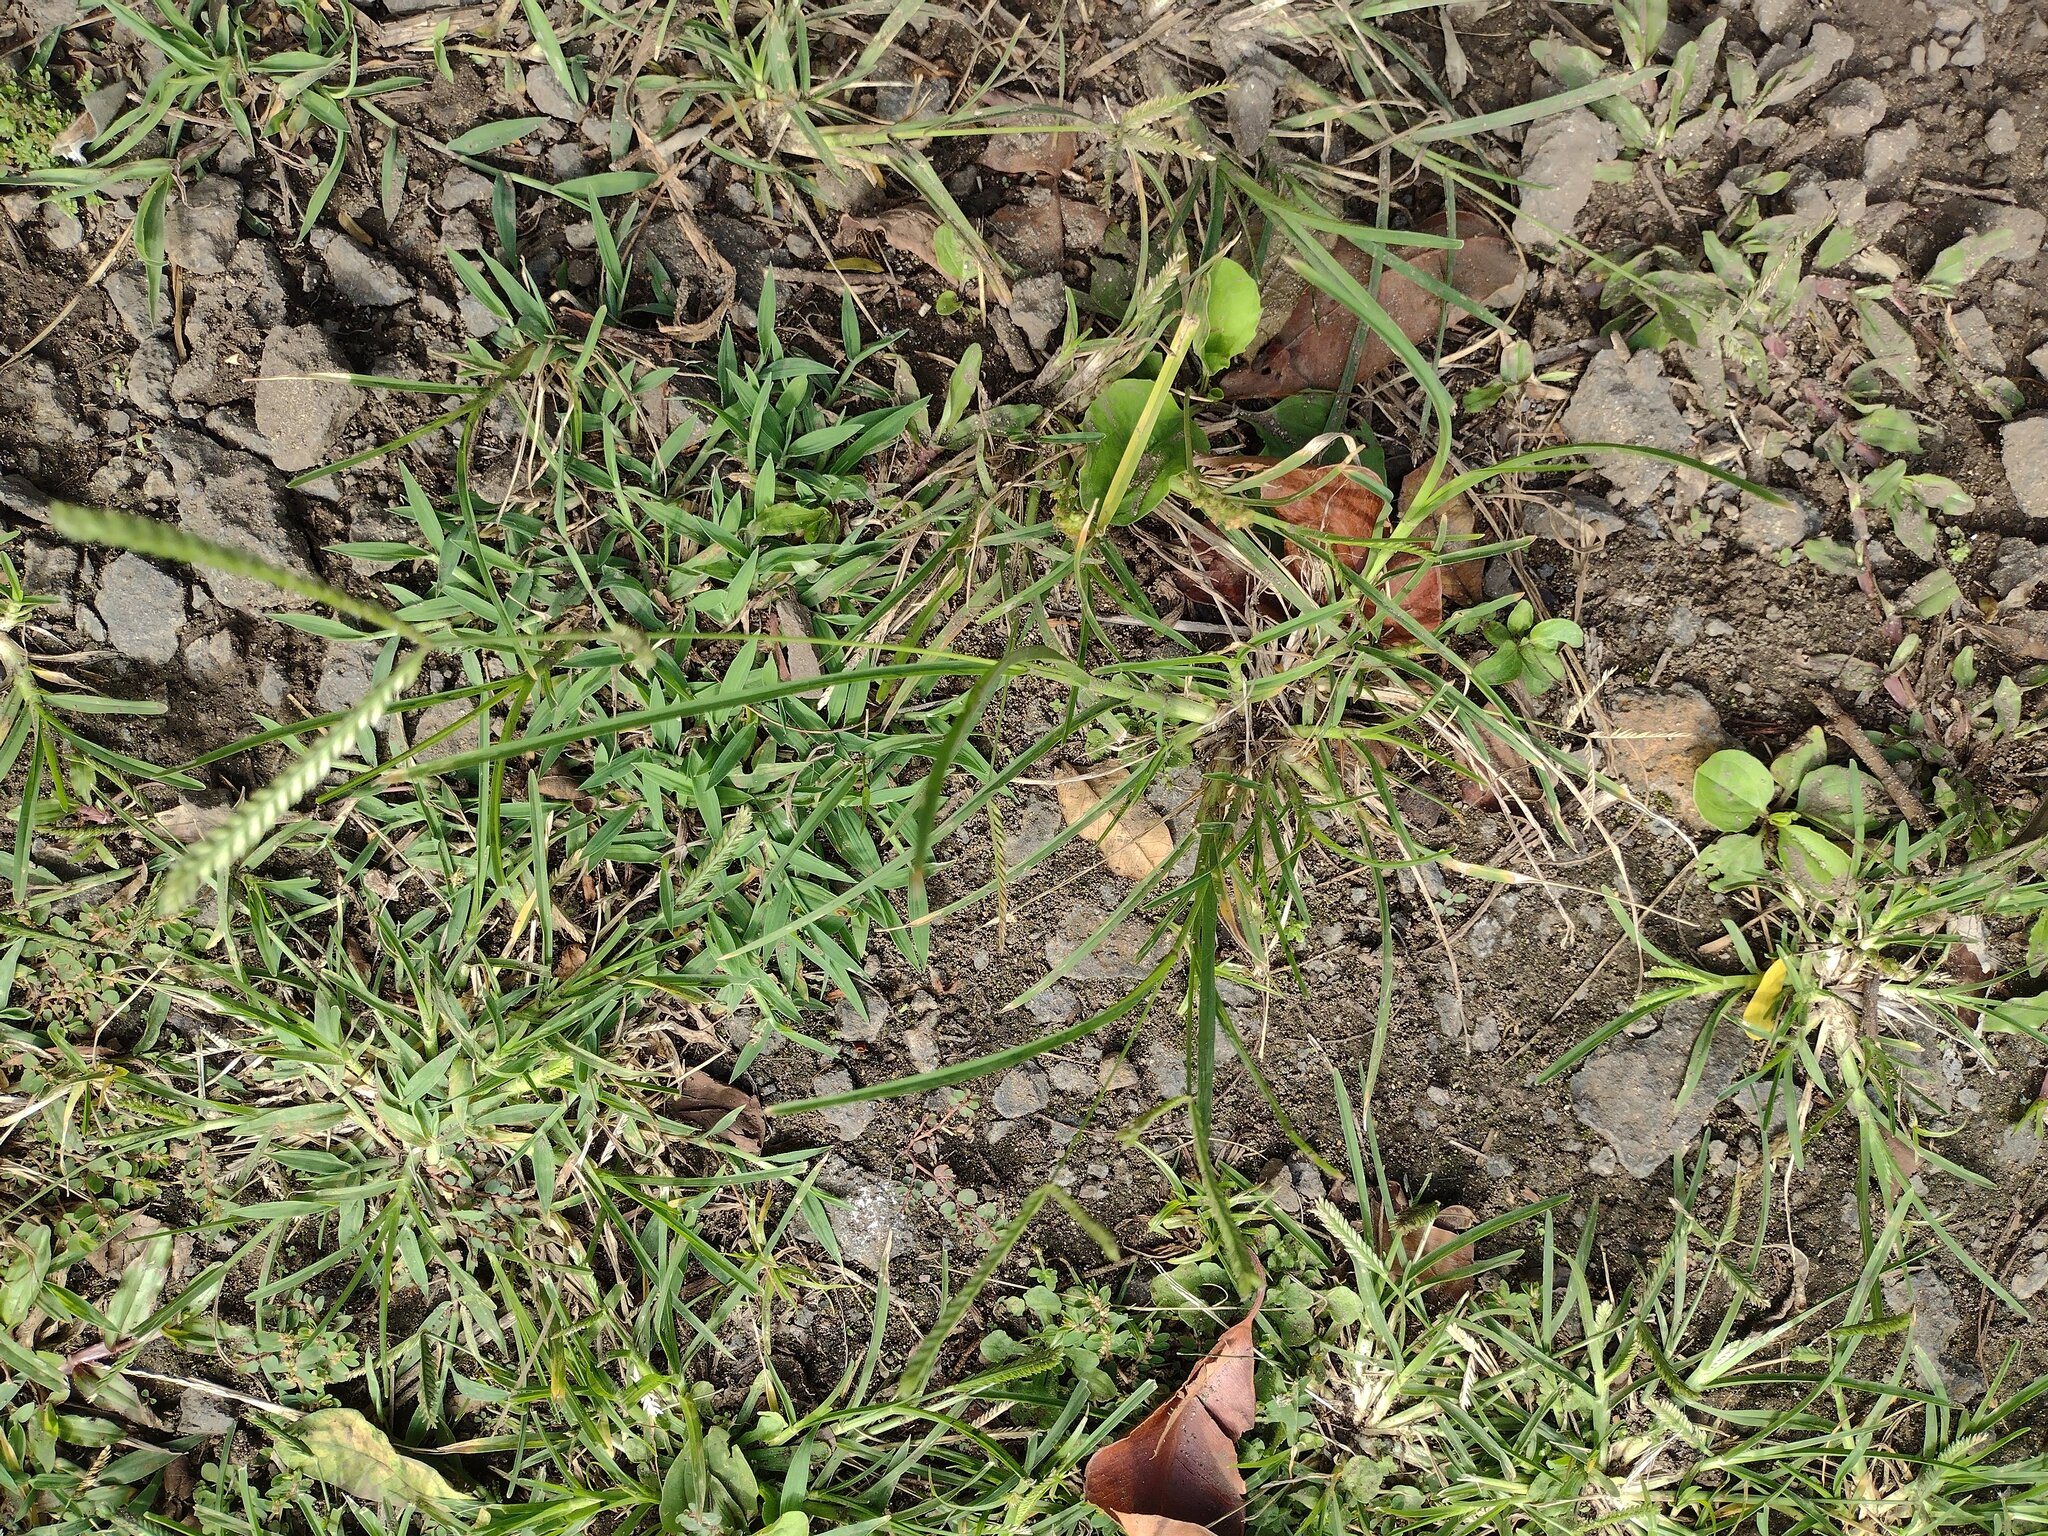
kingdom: Plantae
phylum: Tracheophyta
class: Liliopsida
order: Poales
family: Poaceae
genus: Eleusine
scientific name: Eleusine indica
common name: Yard-grass
